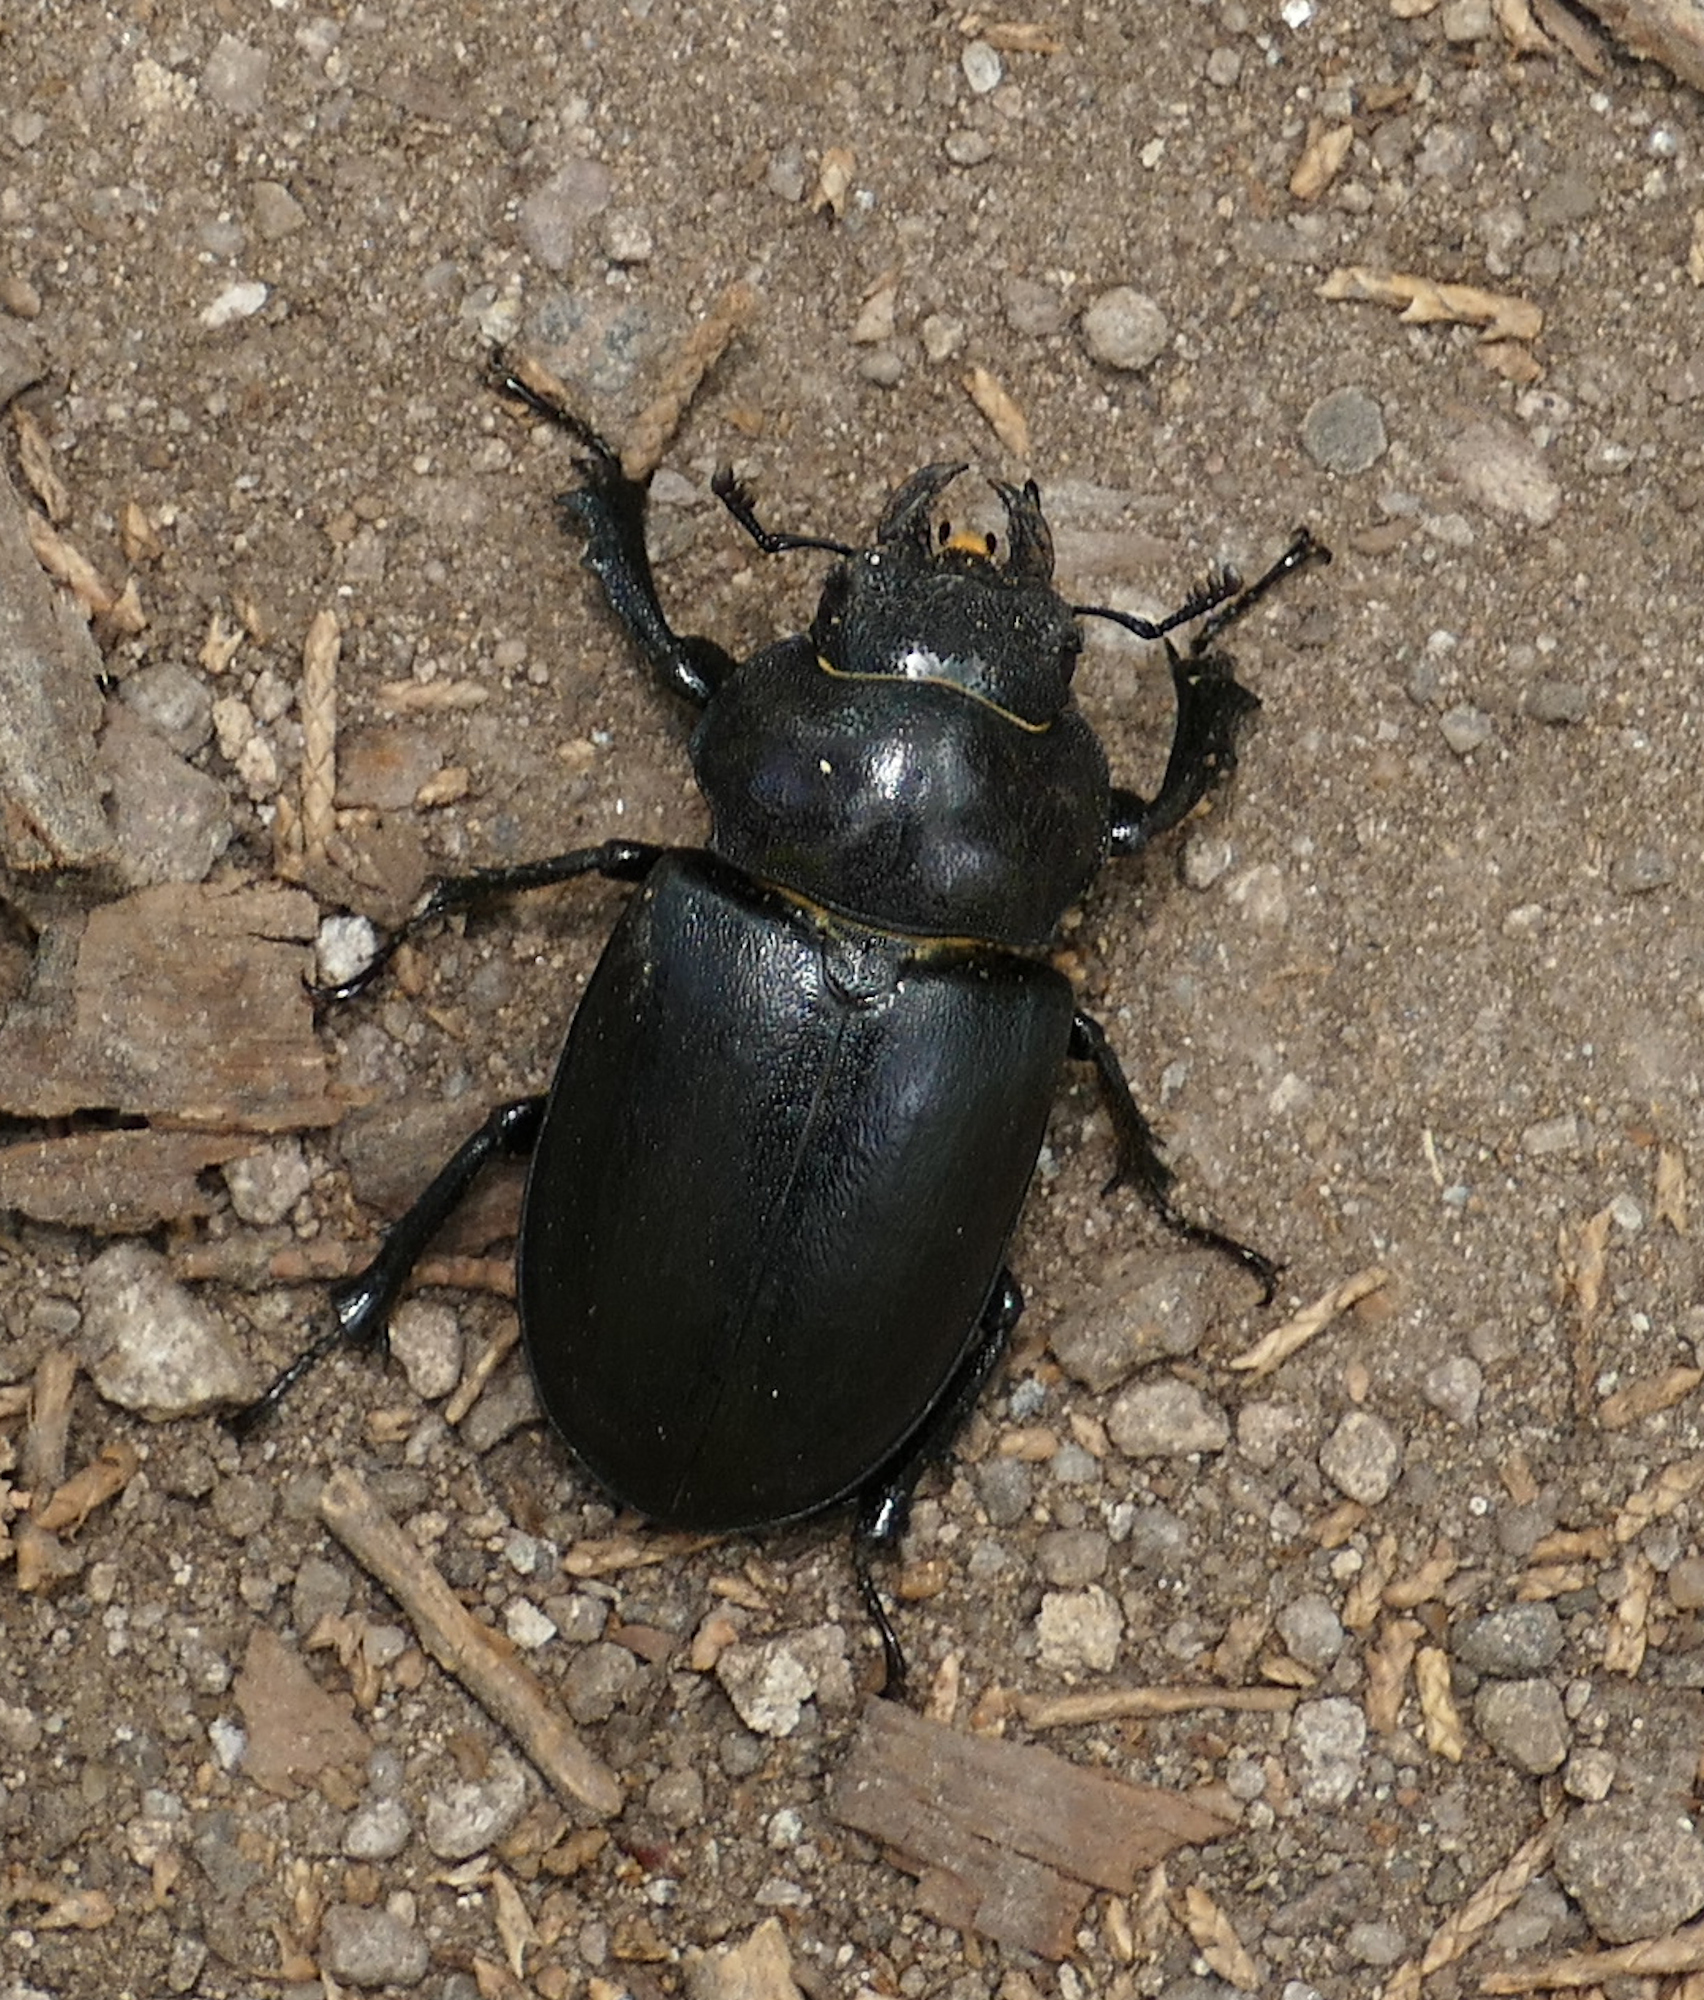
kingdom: Animalia
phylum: Arthropoda
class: Insecta
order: Coleoptera
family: Lucanidae
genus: Lucanus
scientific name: Lucanus mazama
